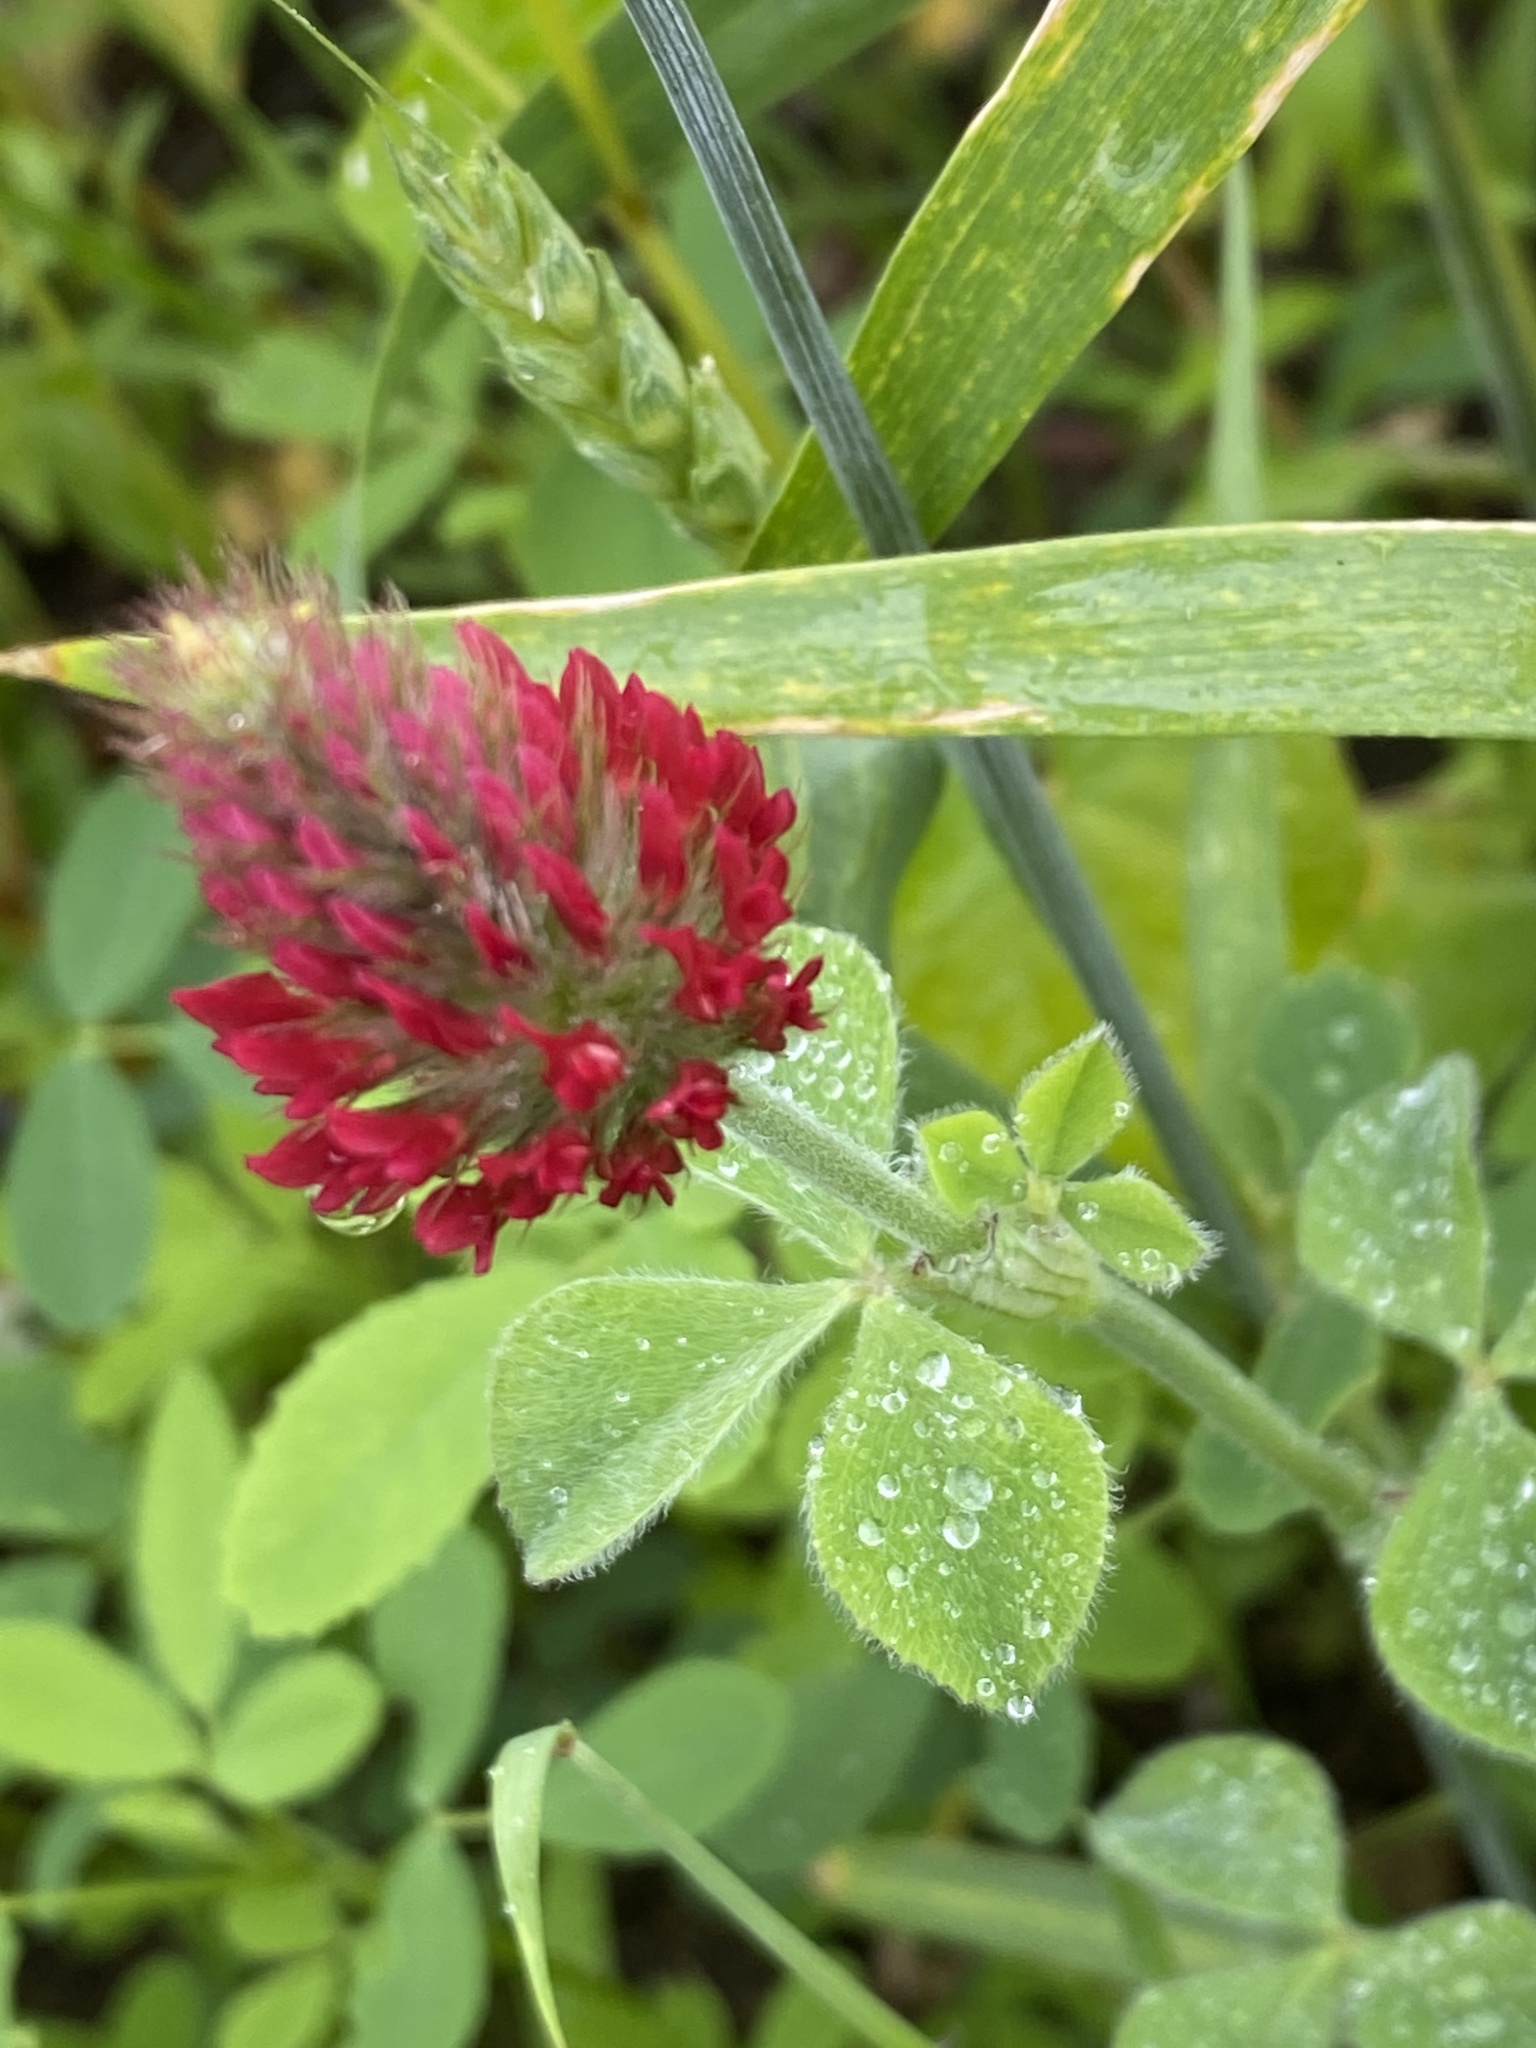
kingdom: Plantae
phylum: Tracheophyta
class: Magnoliopsida
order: Fabales
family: Fabaceae
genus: Trifolium
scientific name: Trifolium incarnatum
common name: Crimson clover
